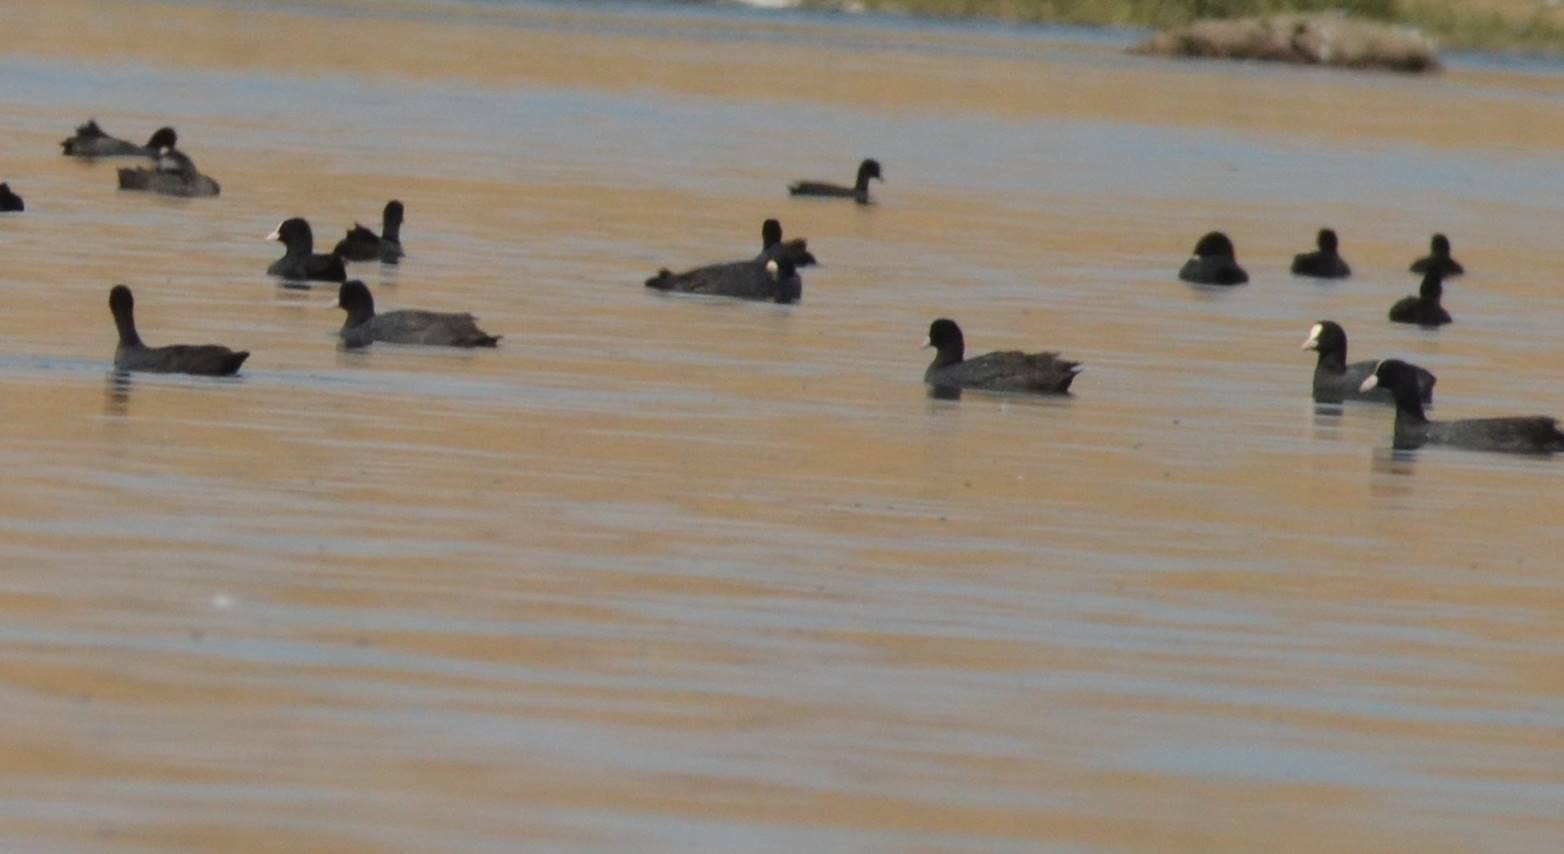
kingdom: Animalia
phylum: Chordata
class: Aves
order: Gruiformes
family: Rallidae
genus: Fulica
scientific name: Fulica atra
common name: Eurasian coot
